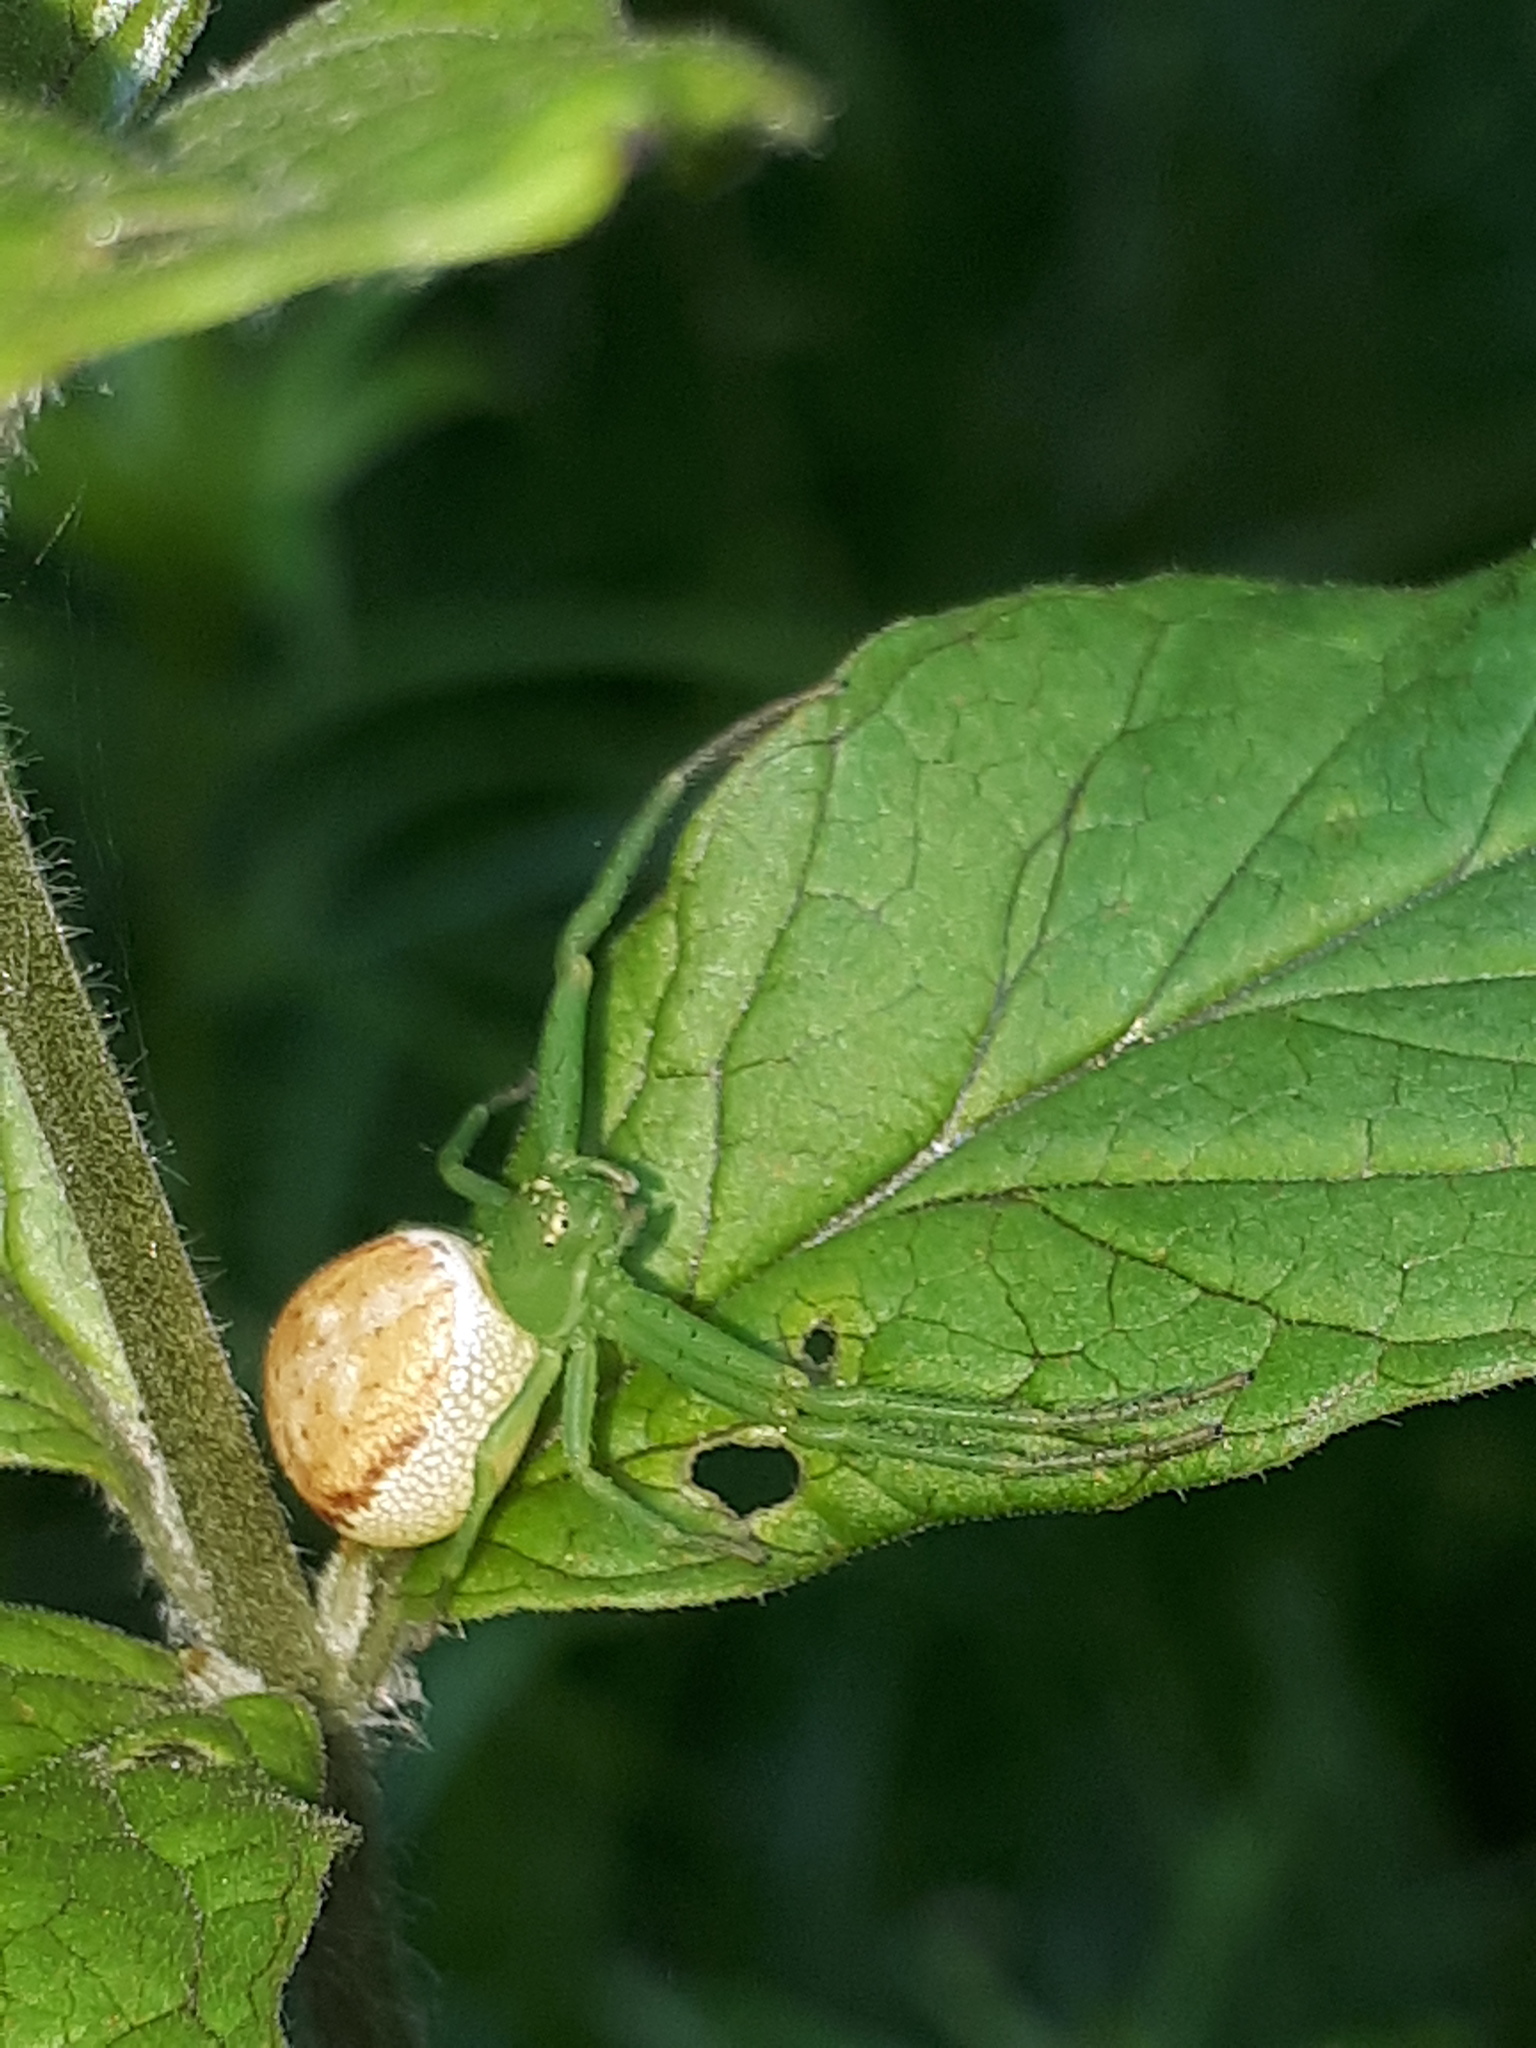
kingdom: Animalia
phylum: Arthropoda
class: Arachnida
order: Araneae
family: Thomisidae
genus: Diaea
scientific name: Diaea dorsata
